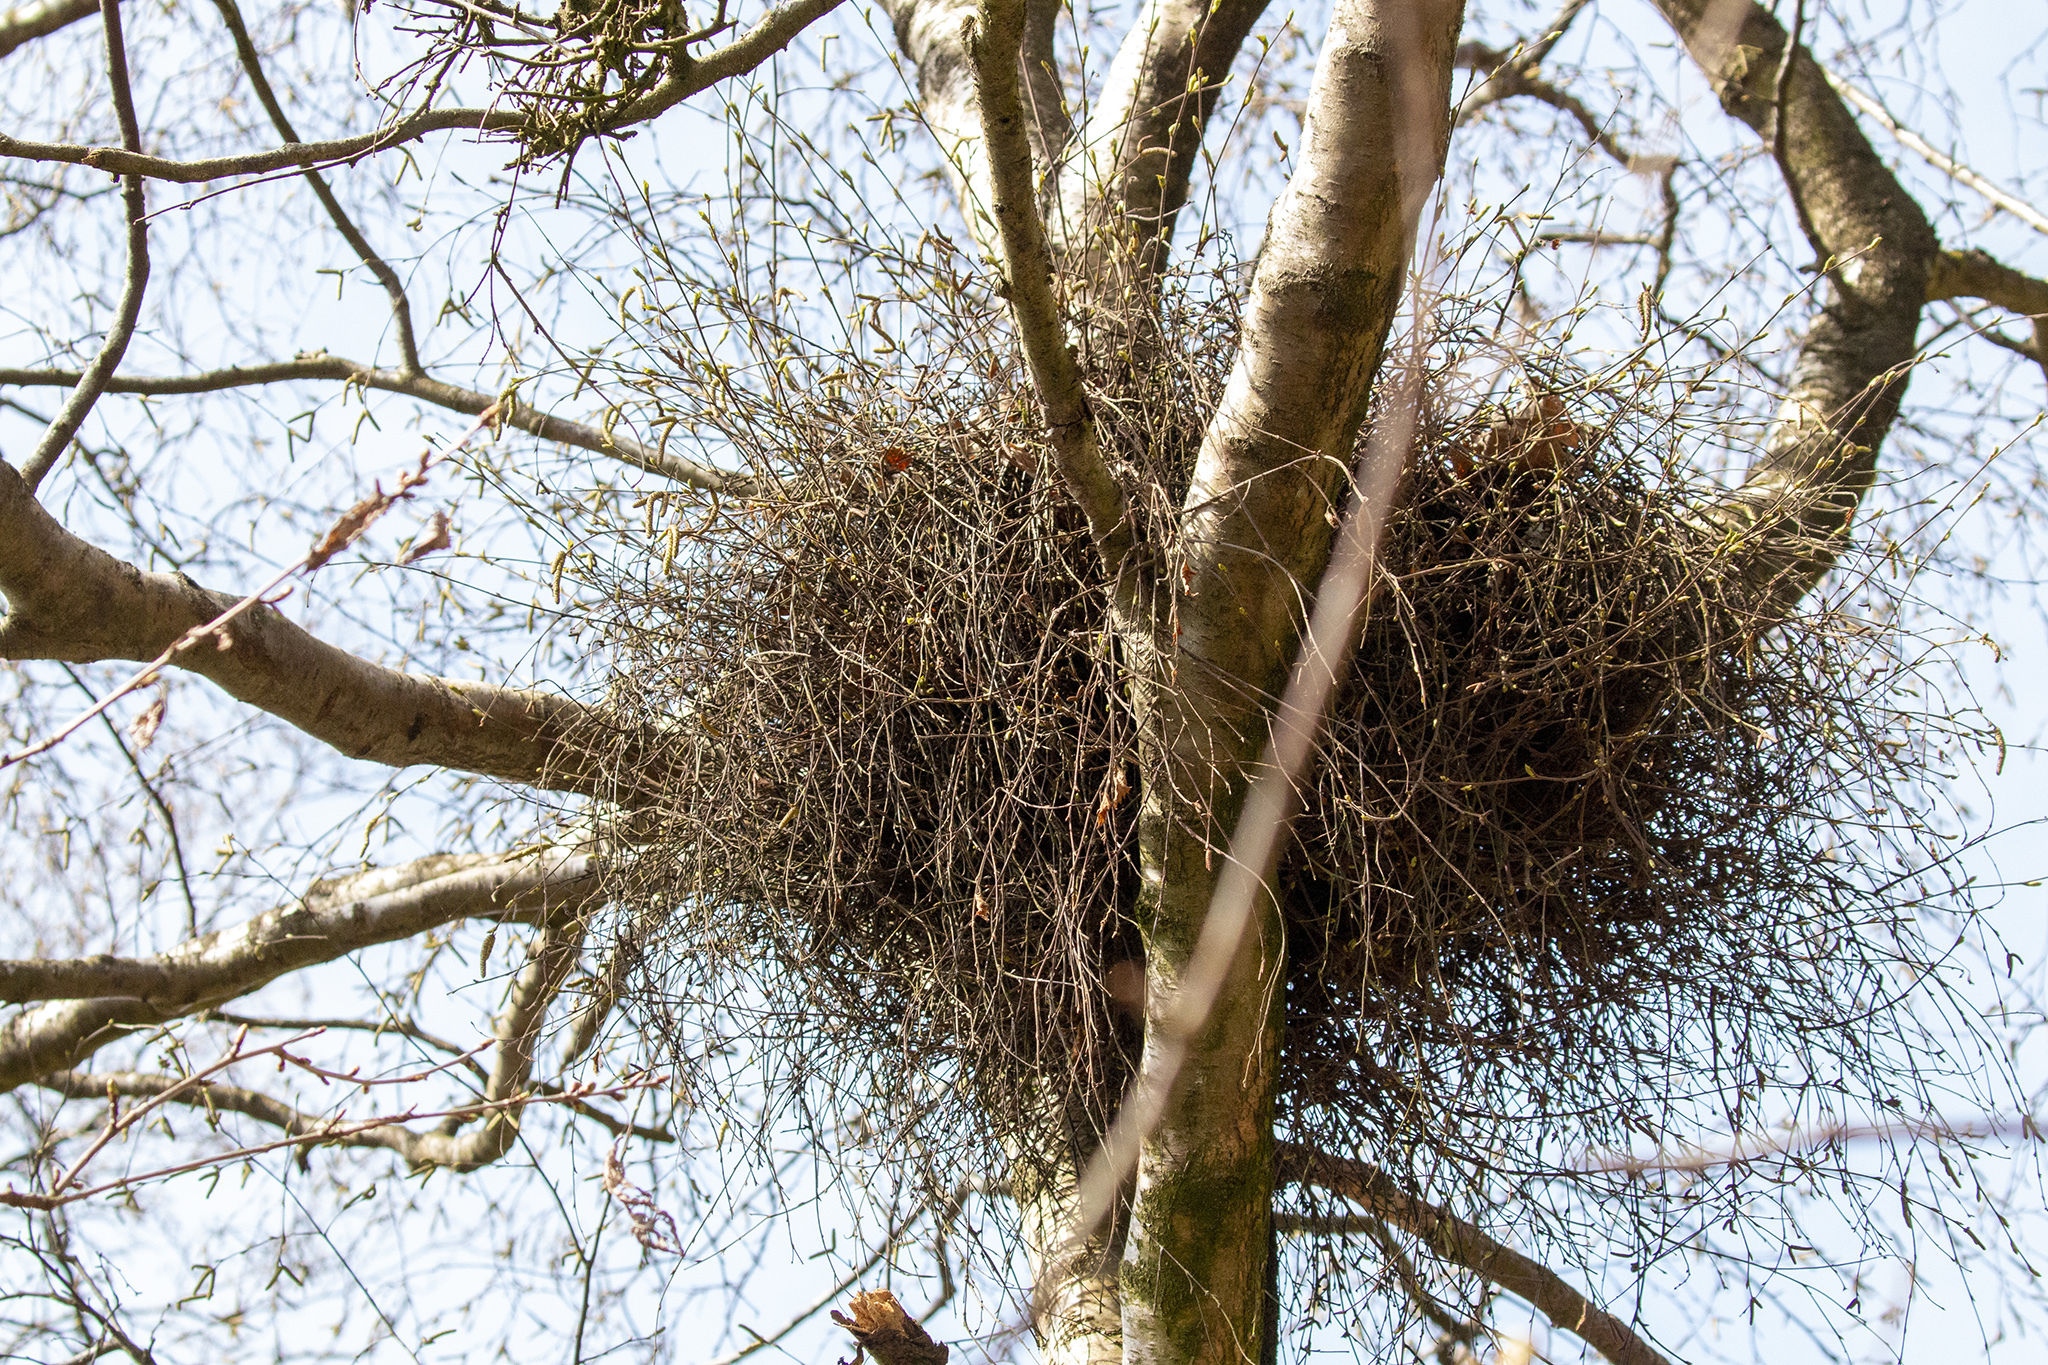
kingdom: Fungi
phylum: Ascomycota
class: Taphrinomycetes
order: Taphrinales
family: Taphrinaceae
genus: Taphrina
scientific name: Taphrina betulina
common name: Birch besom
